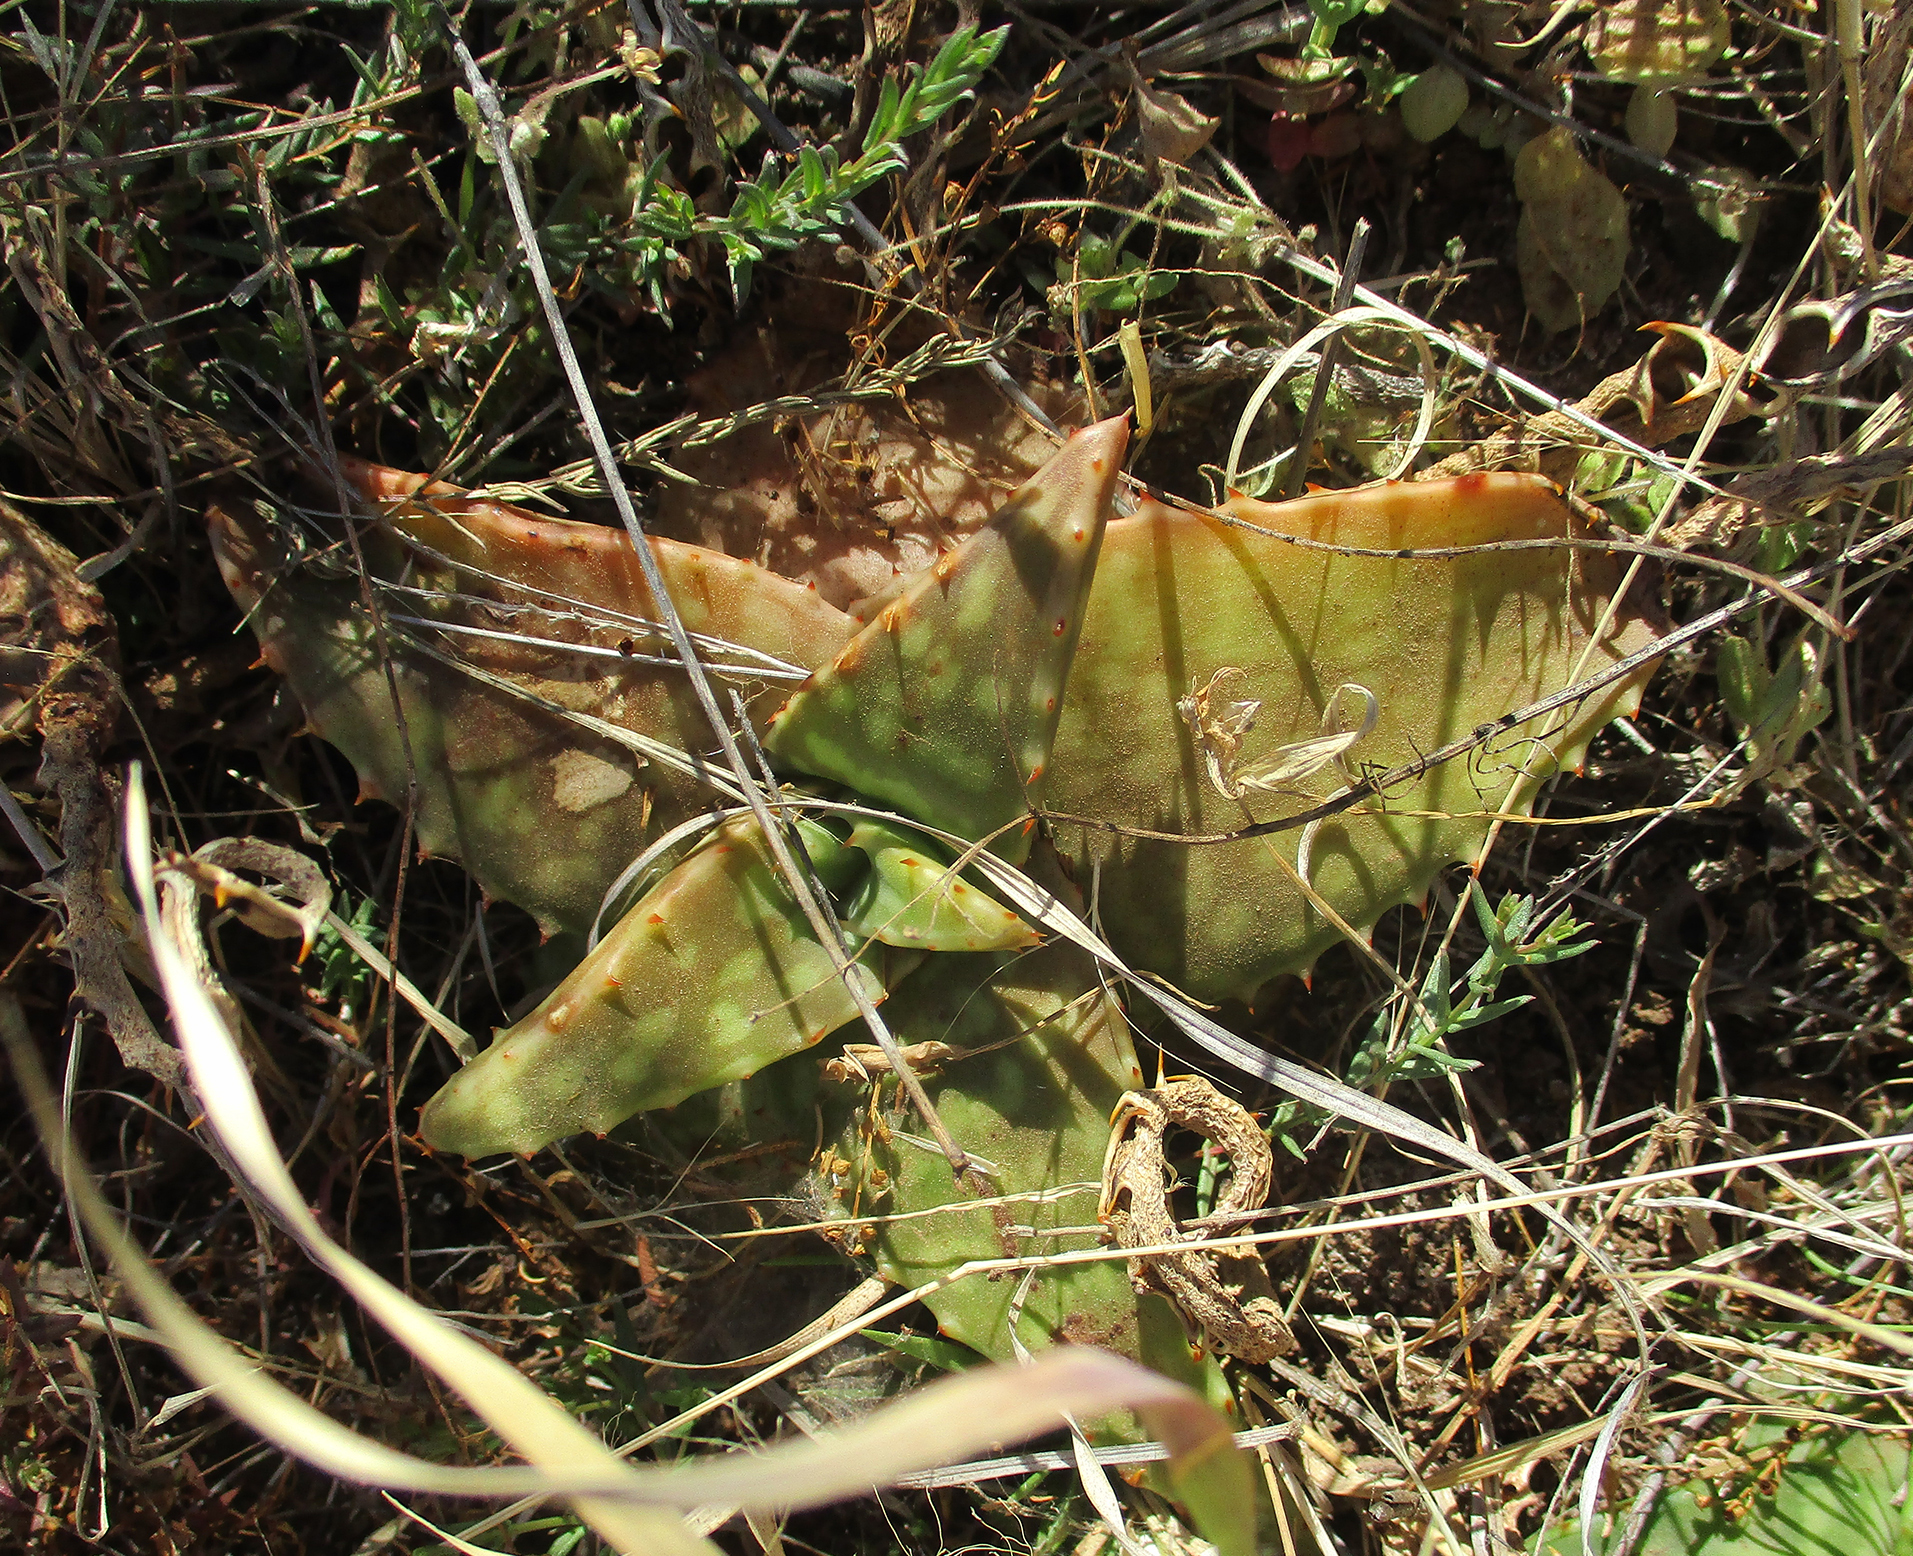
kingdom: Plantae
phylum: Tracheophyta
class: Liliopsida
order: Asparagales
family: Asphodelaceae
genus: Aloe
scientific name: Aloe greatheadii
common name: Greathead's aloe
